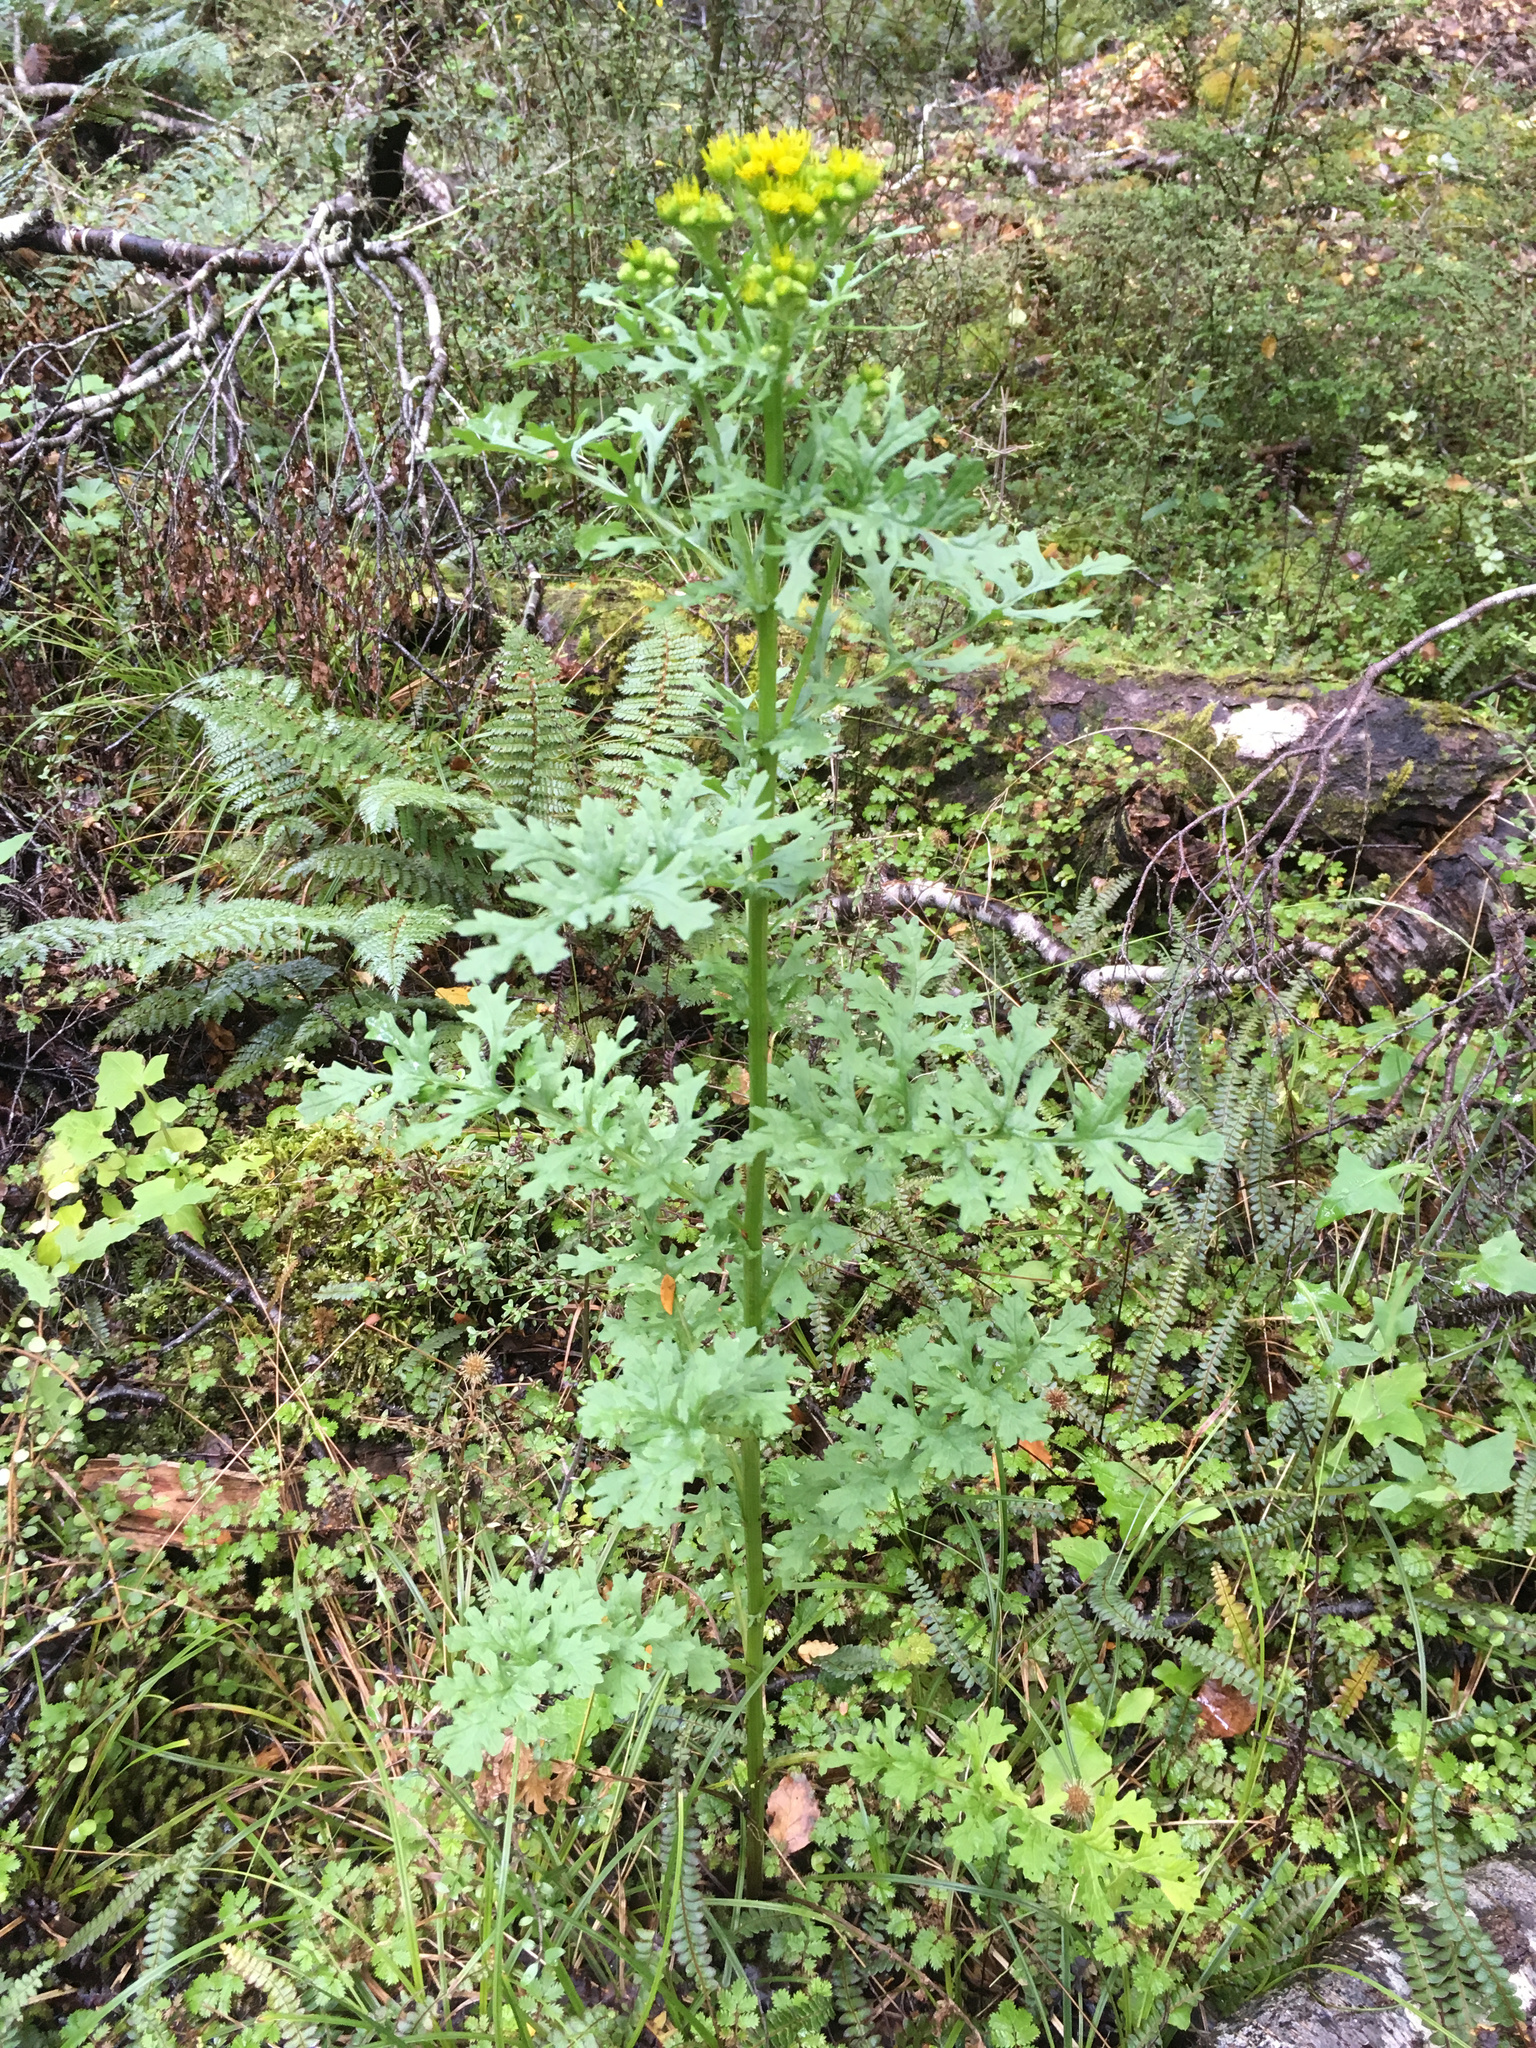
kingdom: Plantae
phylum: Tracheophyta
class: Magnoliopsida
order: Asterales
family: Asteraceae
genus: Jacobaea
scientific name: Jacobaea vulgaris
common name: Stinking willie
